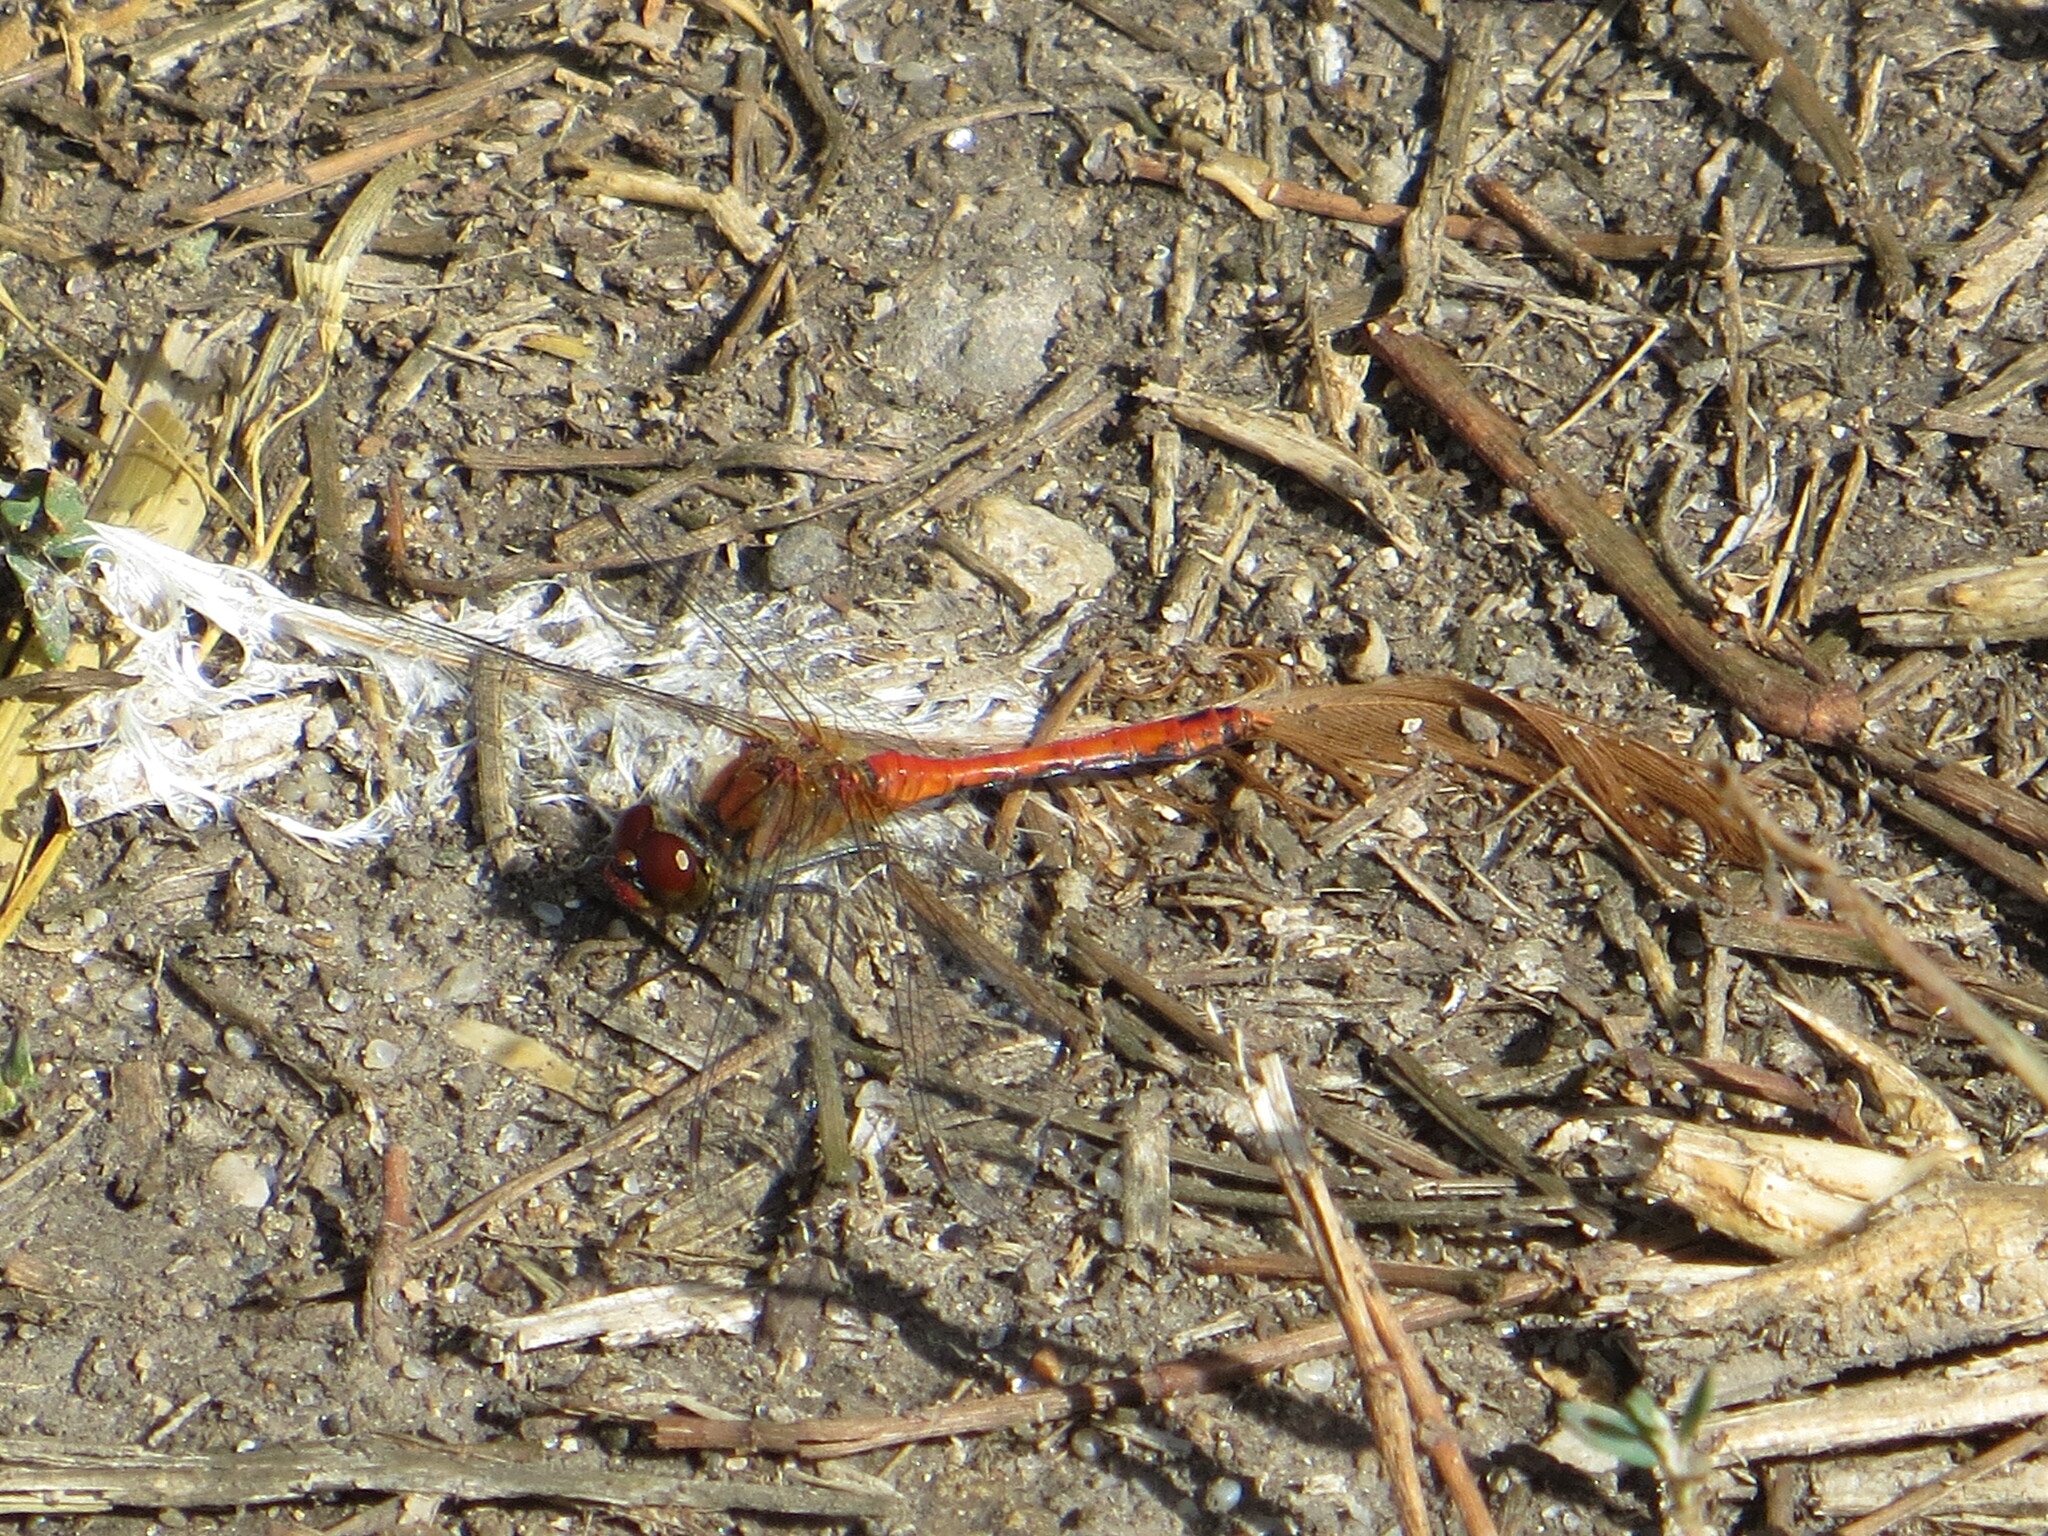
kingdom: Animalia
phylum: Arthropoda
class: Insecta
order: Odonata
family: Libellulidae
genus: Sympetrum
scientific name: Sympetrum sanguineum
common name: Ruddy darter
